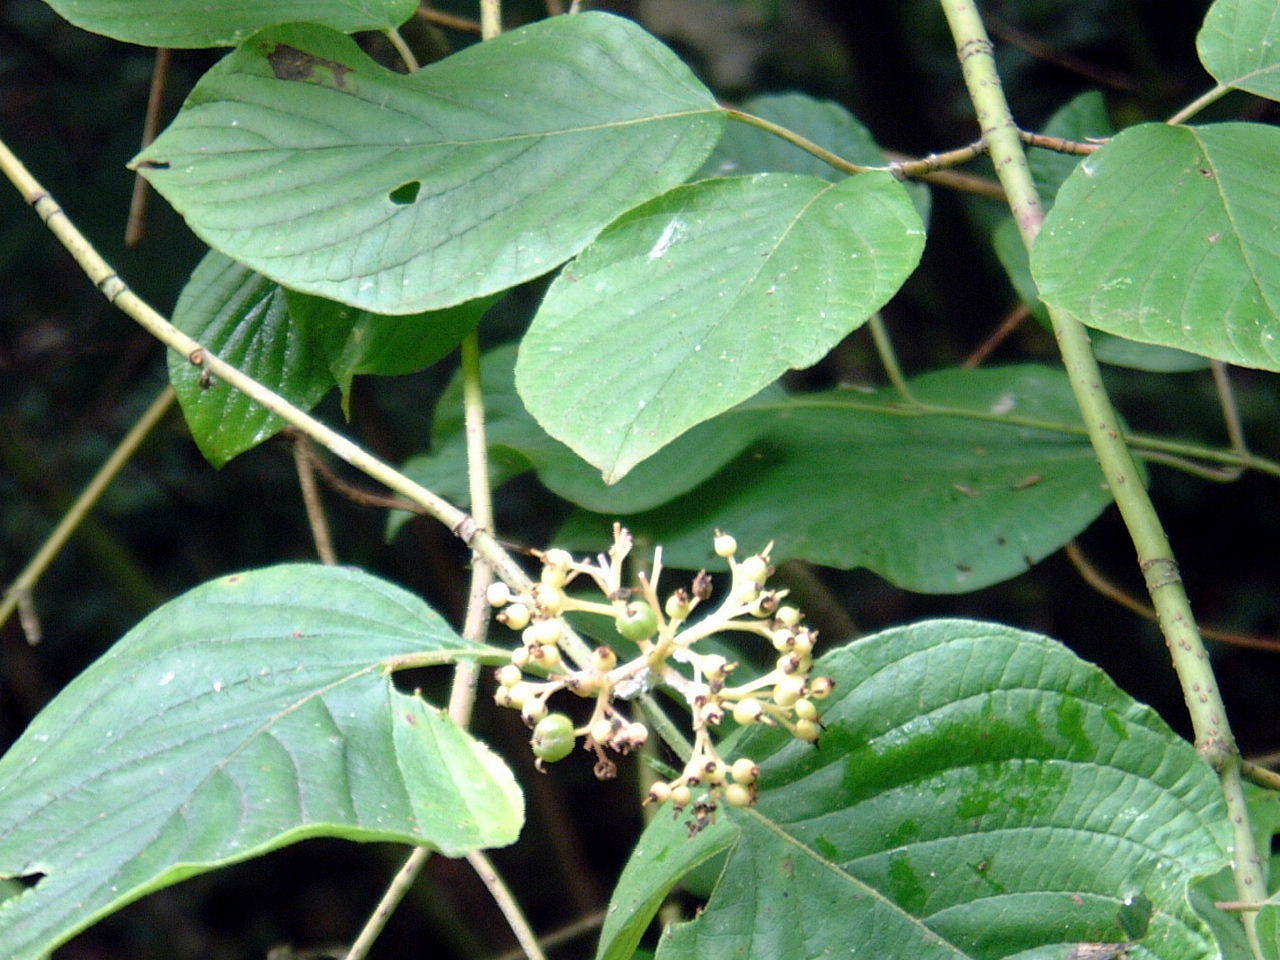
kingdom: Plantae
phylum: Tracheophyta
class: Magnoliopsida
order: Cornales
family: Cornaceae
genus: Cornus
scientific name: Cornus rugosa
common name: Round-leaf dogwood
